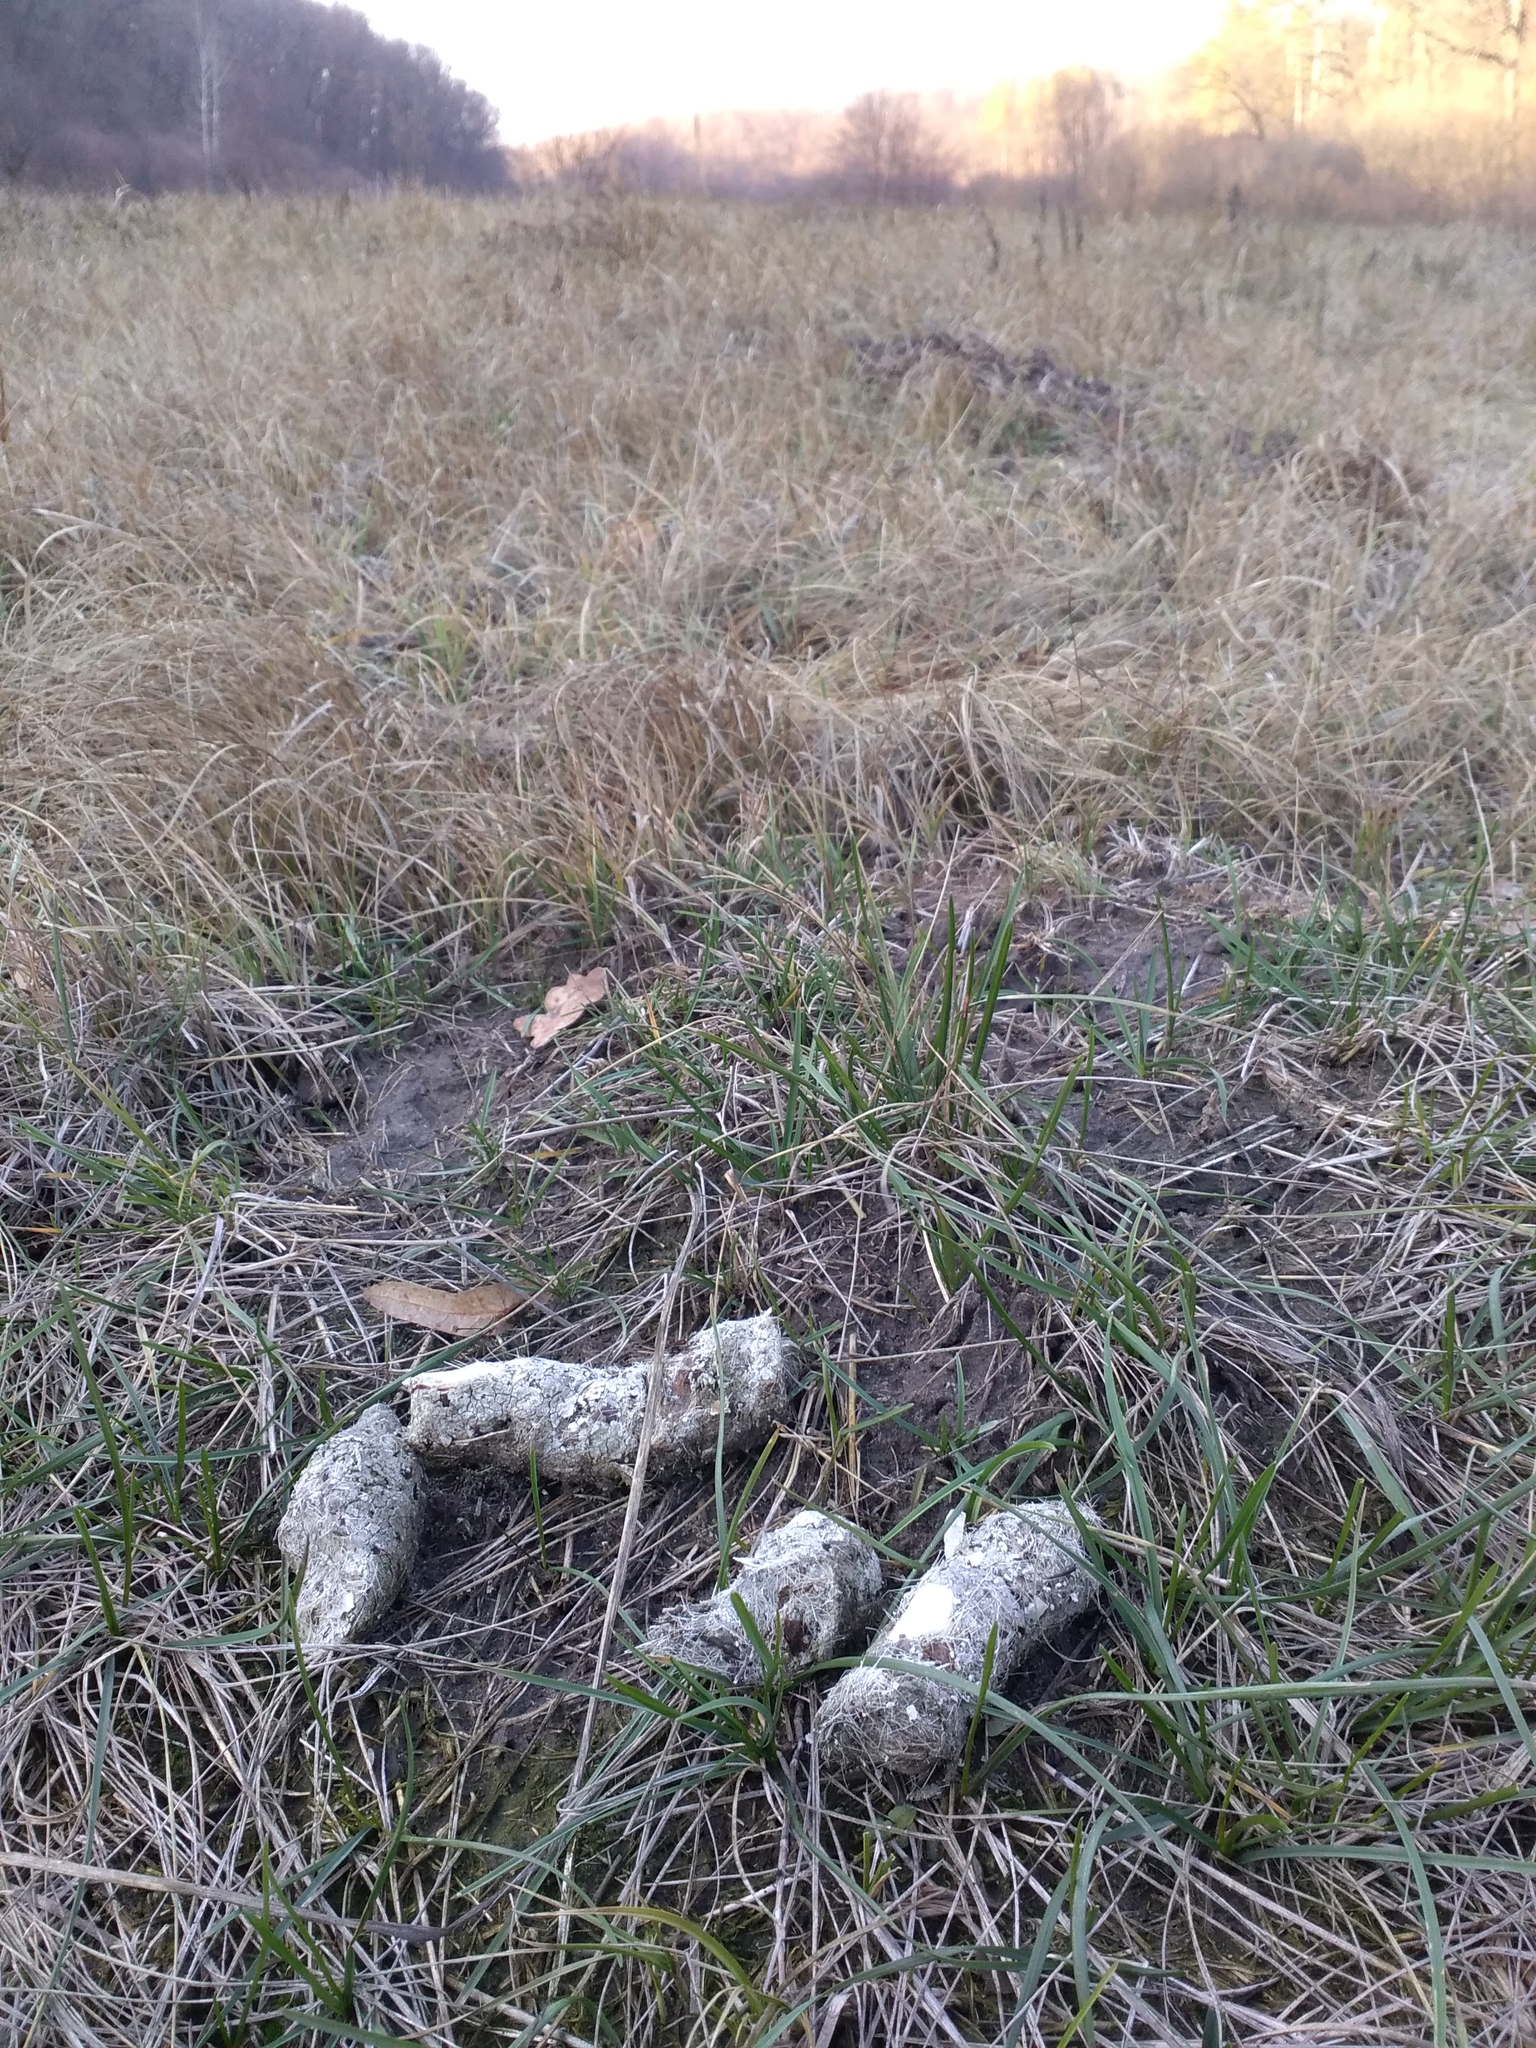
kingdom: Animalia
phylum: Chordata
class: Mammalia
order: Carnivora
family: Canidae
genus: Canis
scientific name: Canis lupus
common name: Gray wolf
